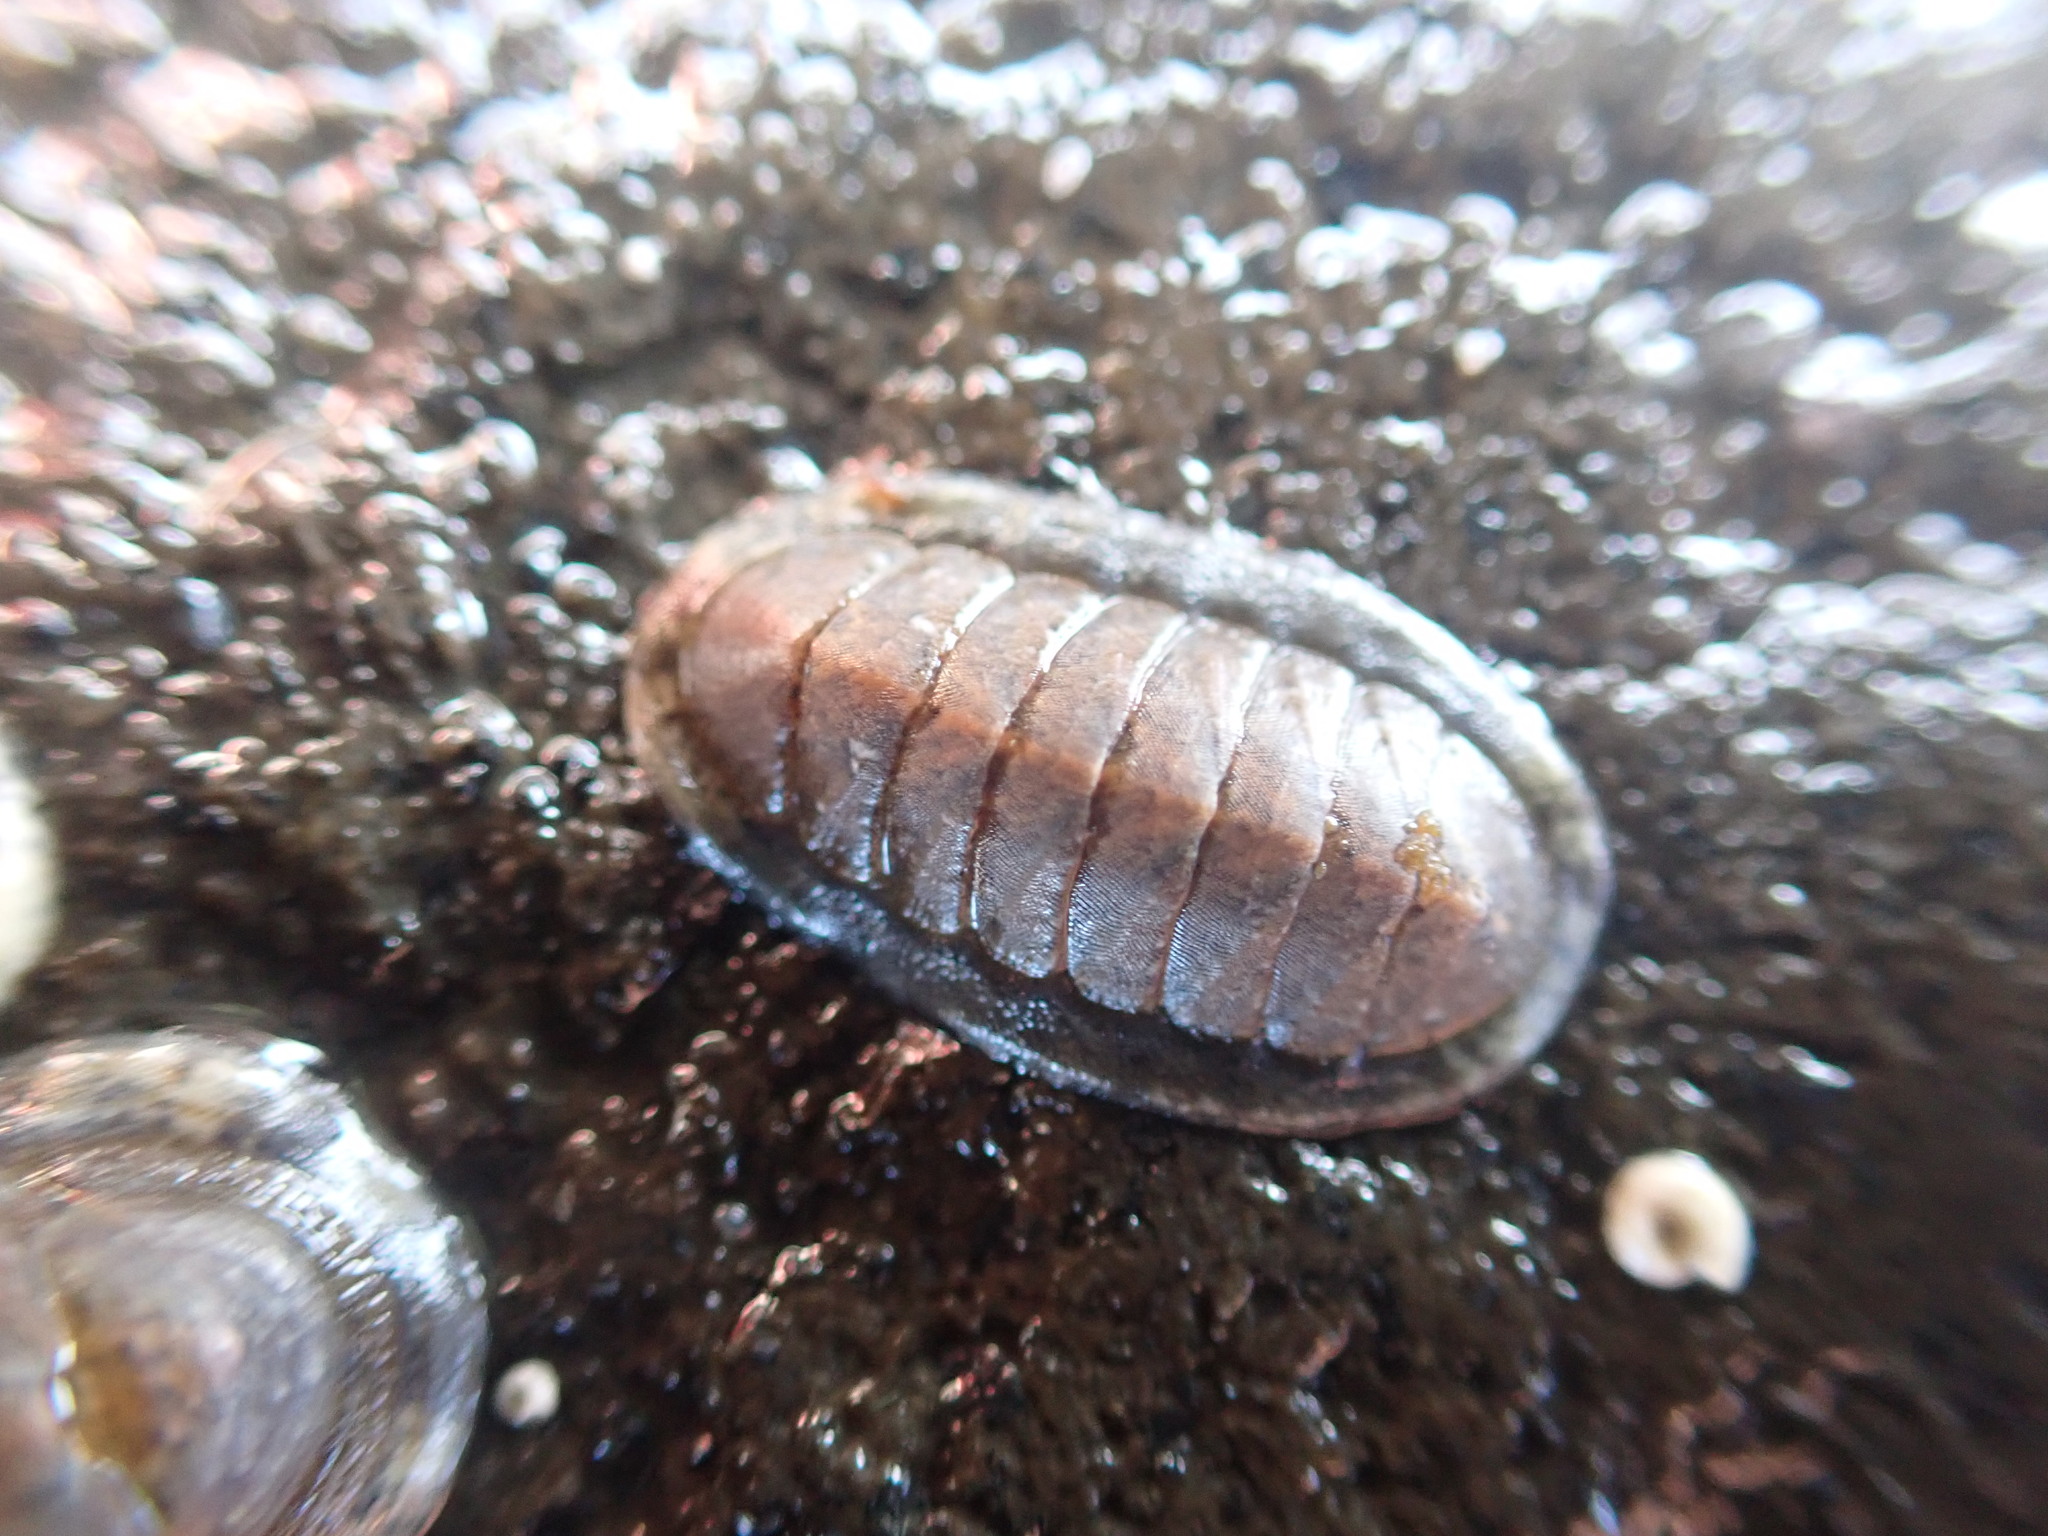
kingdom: Animalia
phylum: Mollusca
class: Polyplacophora
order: Chitonida
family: Ischnochitonidae
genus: Ischnochiton
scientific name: Ischnochiton maorianus
